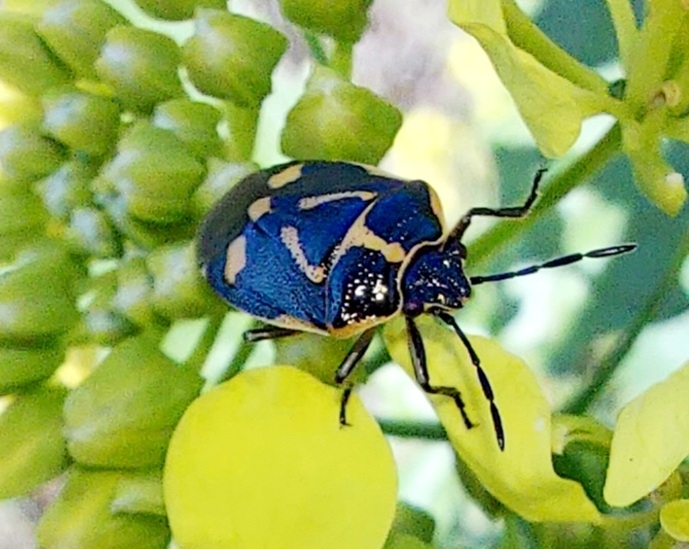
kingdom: Animalia
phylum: Arthropoda
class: Insecta
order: Hemiptera
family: Pentatomidae
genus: Eurydema
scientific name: Eurydema oleracea
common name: Cabbage bug
